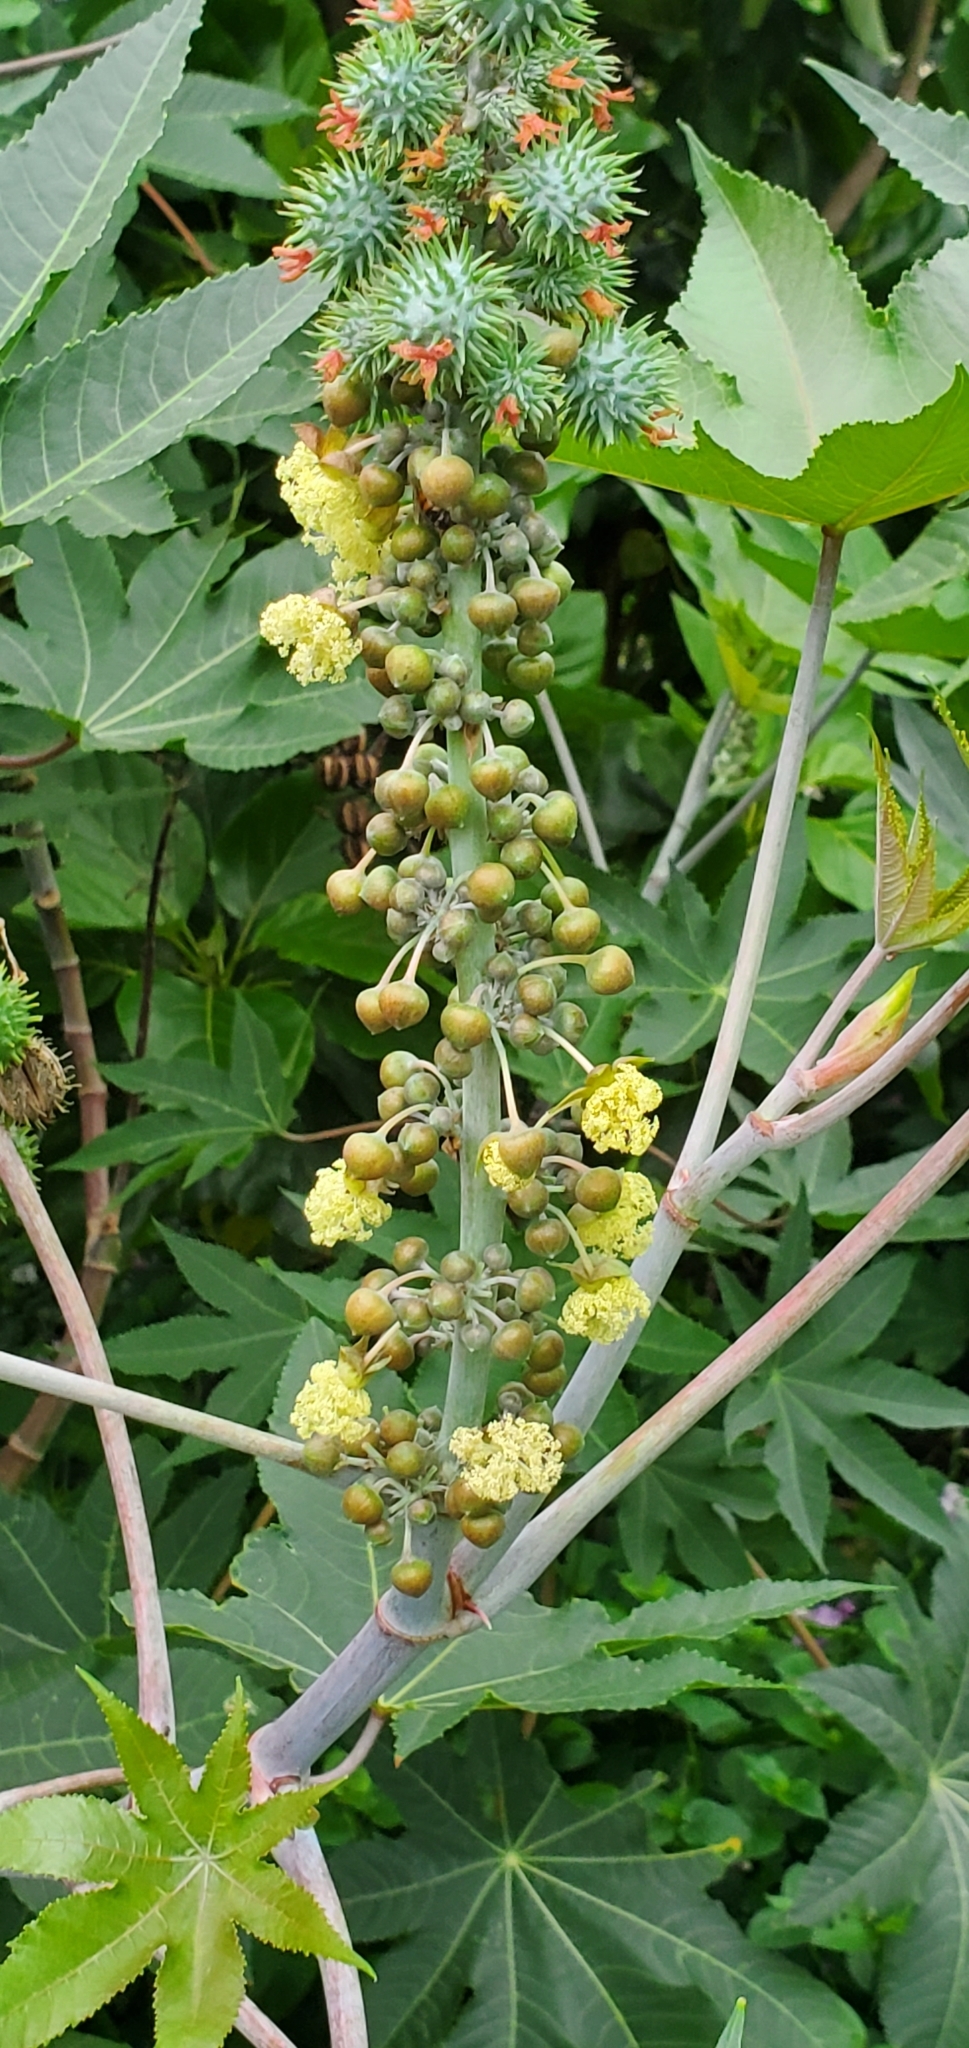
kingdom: Plantae
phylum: Tracheophyta
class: Magnoliopsida
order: Malpighiales
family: Euphorbiaceae
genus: Ricinus
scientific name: Ricinus communis
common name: Castor-oil-plant
